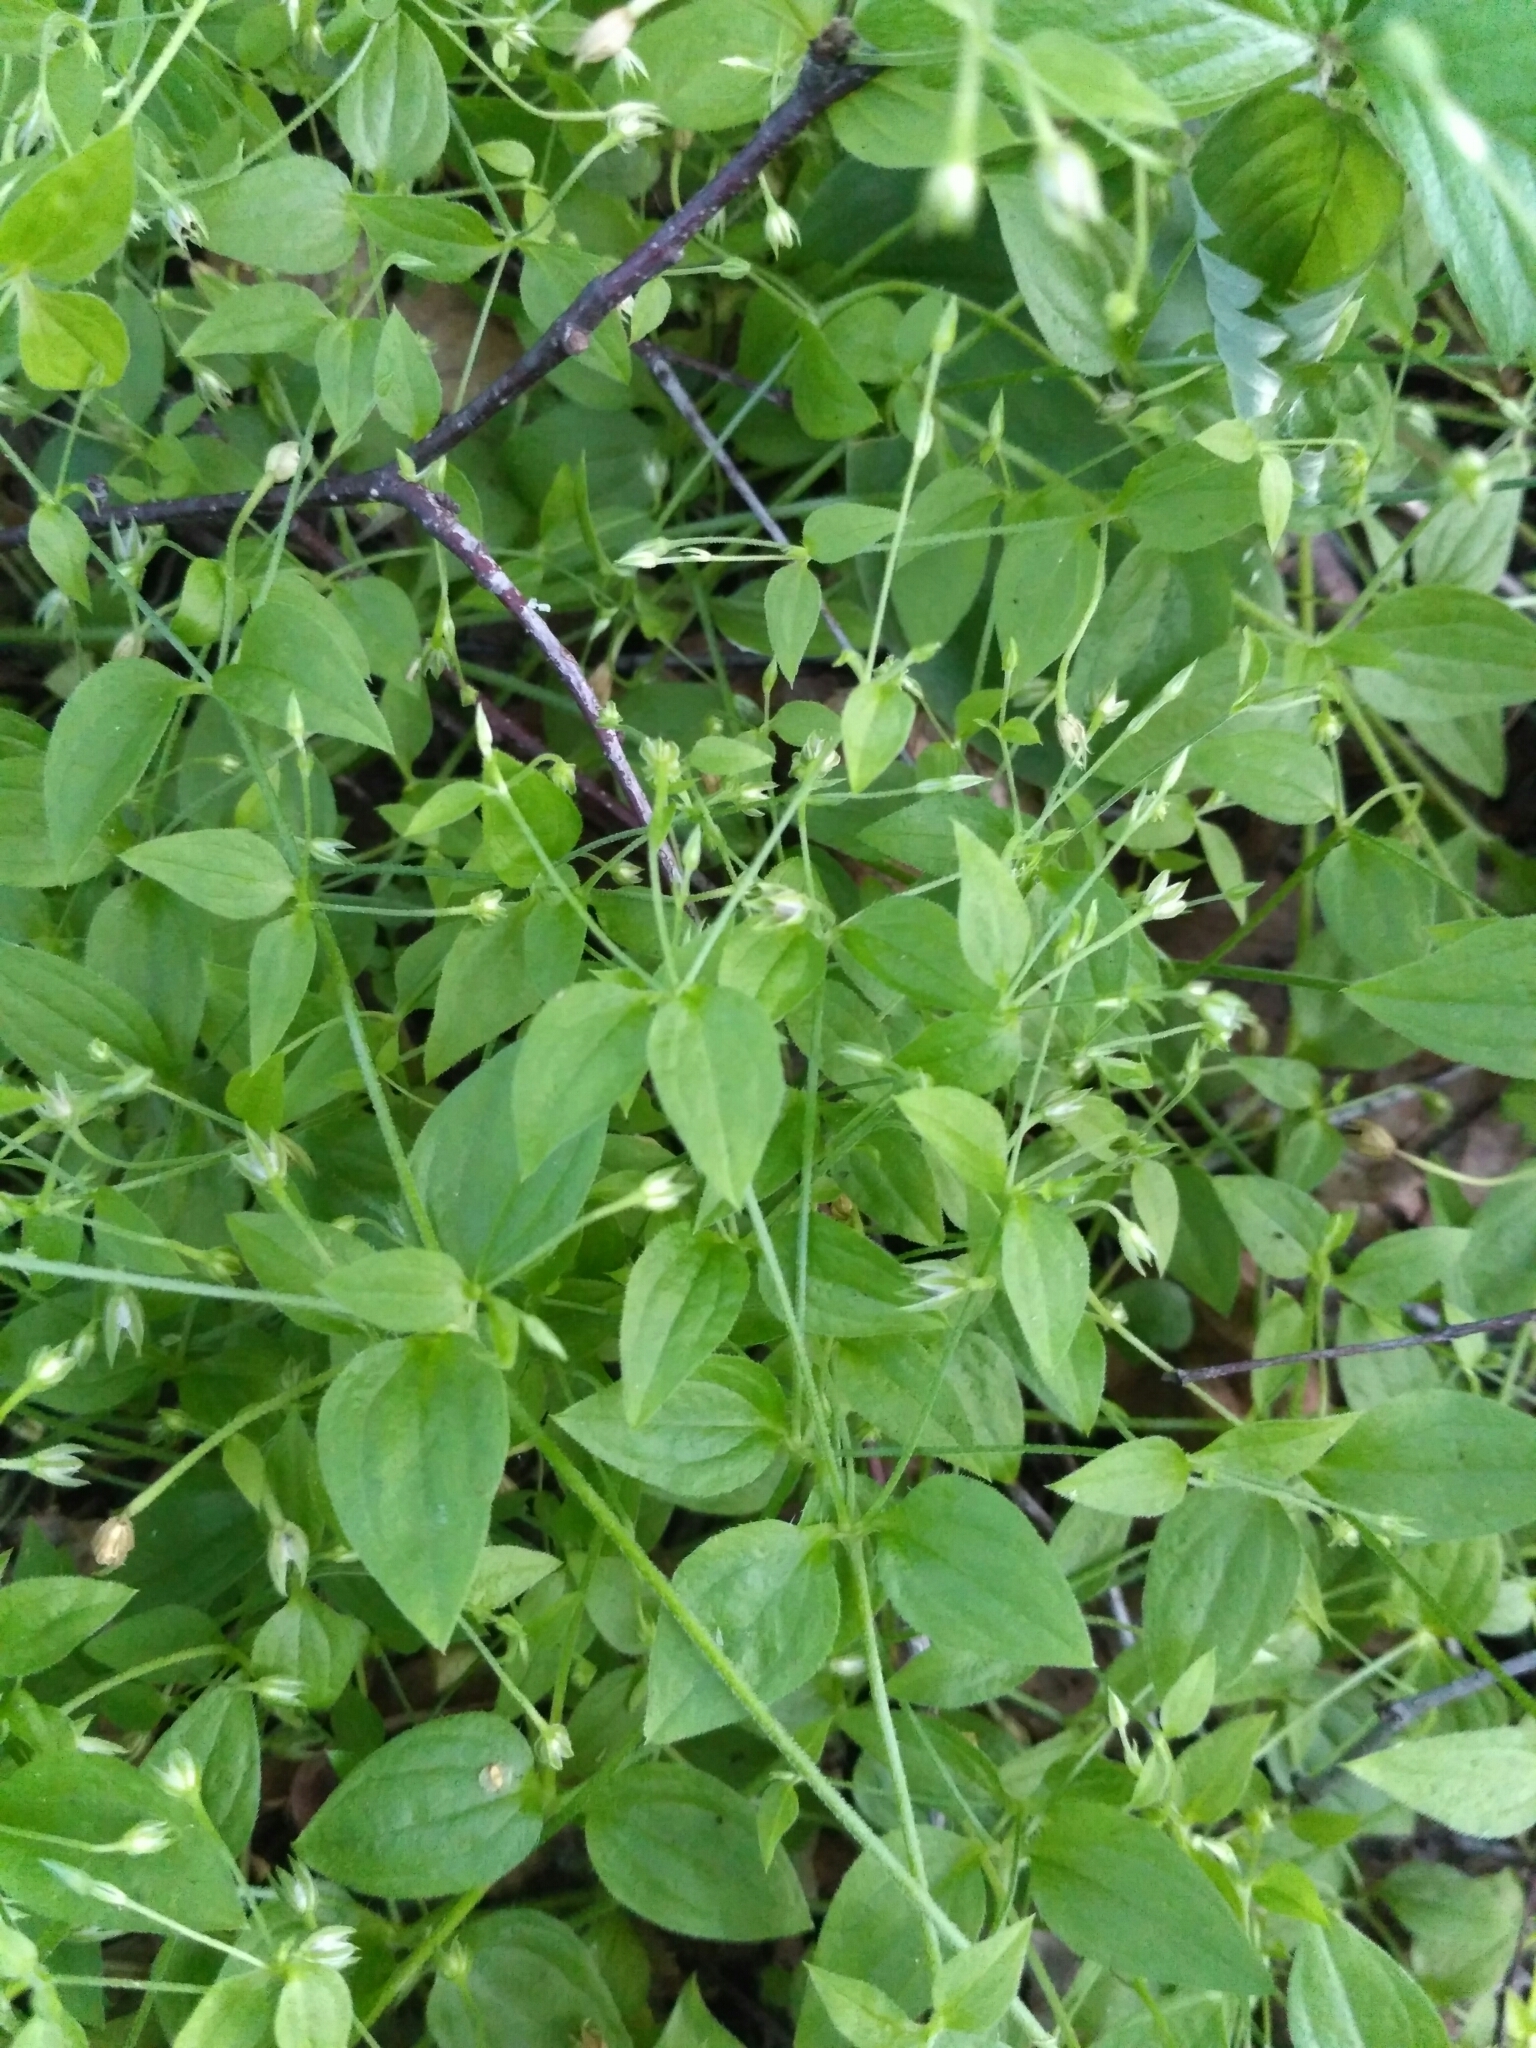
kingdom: Plantae
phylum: Tracheophyta
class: Magnoliopsida
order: Caryophyllales
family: Caryophyllaceae
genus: Moehringia
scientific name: Moehringia trinervia
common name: Three-nerved sandwort
